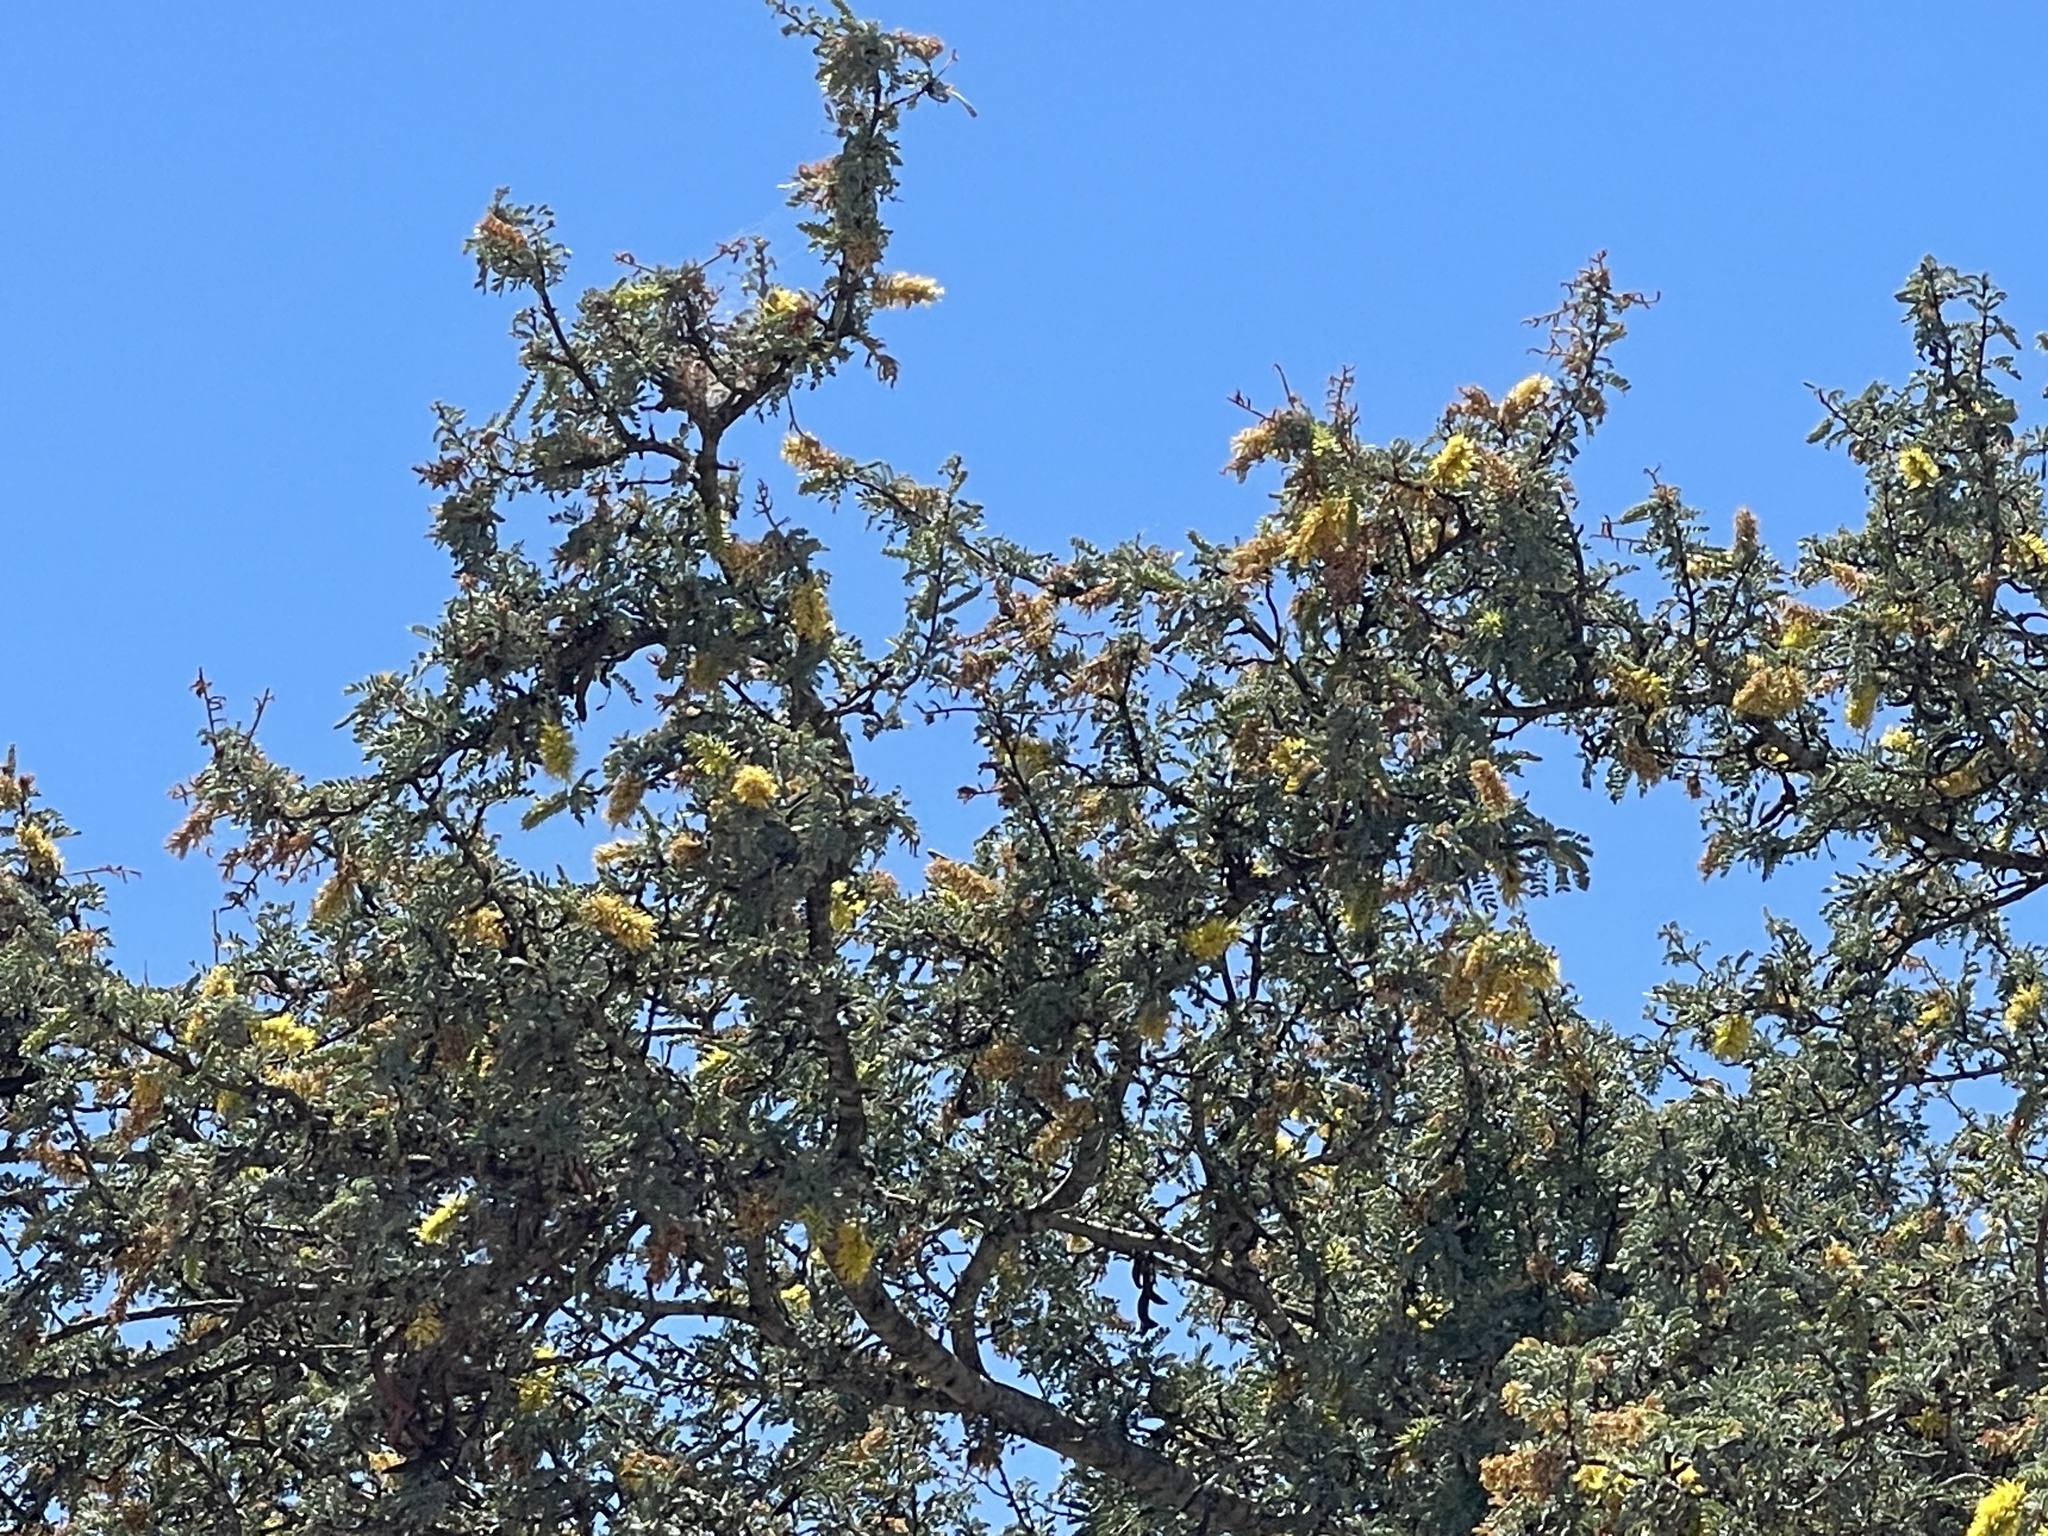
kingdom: Plantae
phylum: Tracheophyta
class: Magnoliopsida
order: Fabales
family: Fabaceae
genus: Prosopis
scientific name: Prosopis palmeri
